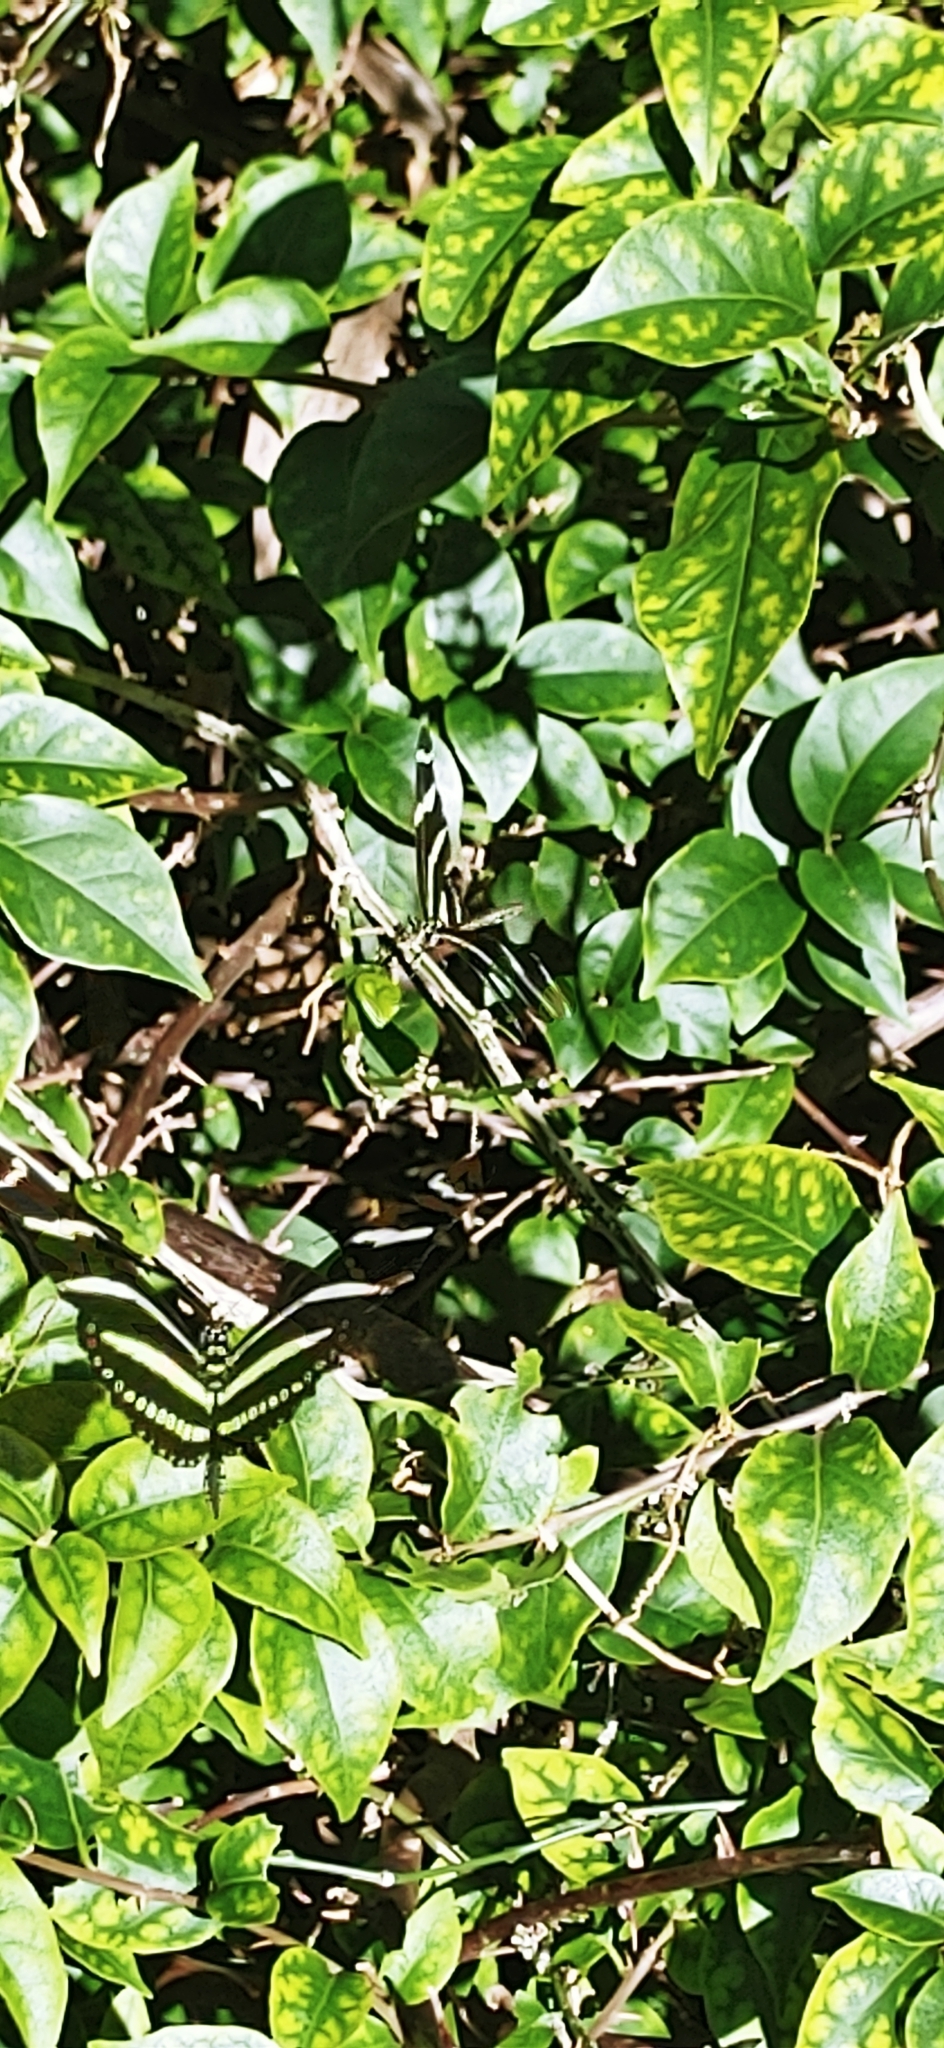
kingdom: Animalia
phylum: Arthropoda
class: Insecta
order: Lepidoptera
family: Nymphalidae
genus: Heliconius
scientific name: Heliconius charithonia
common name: Zebra long wing
